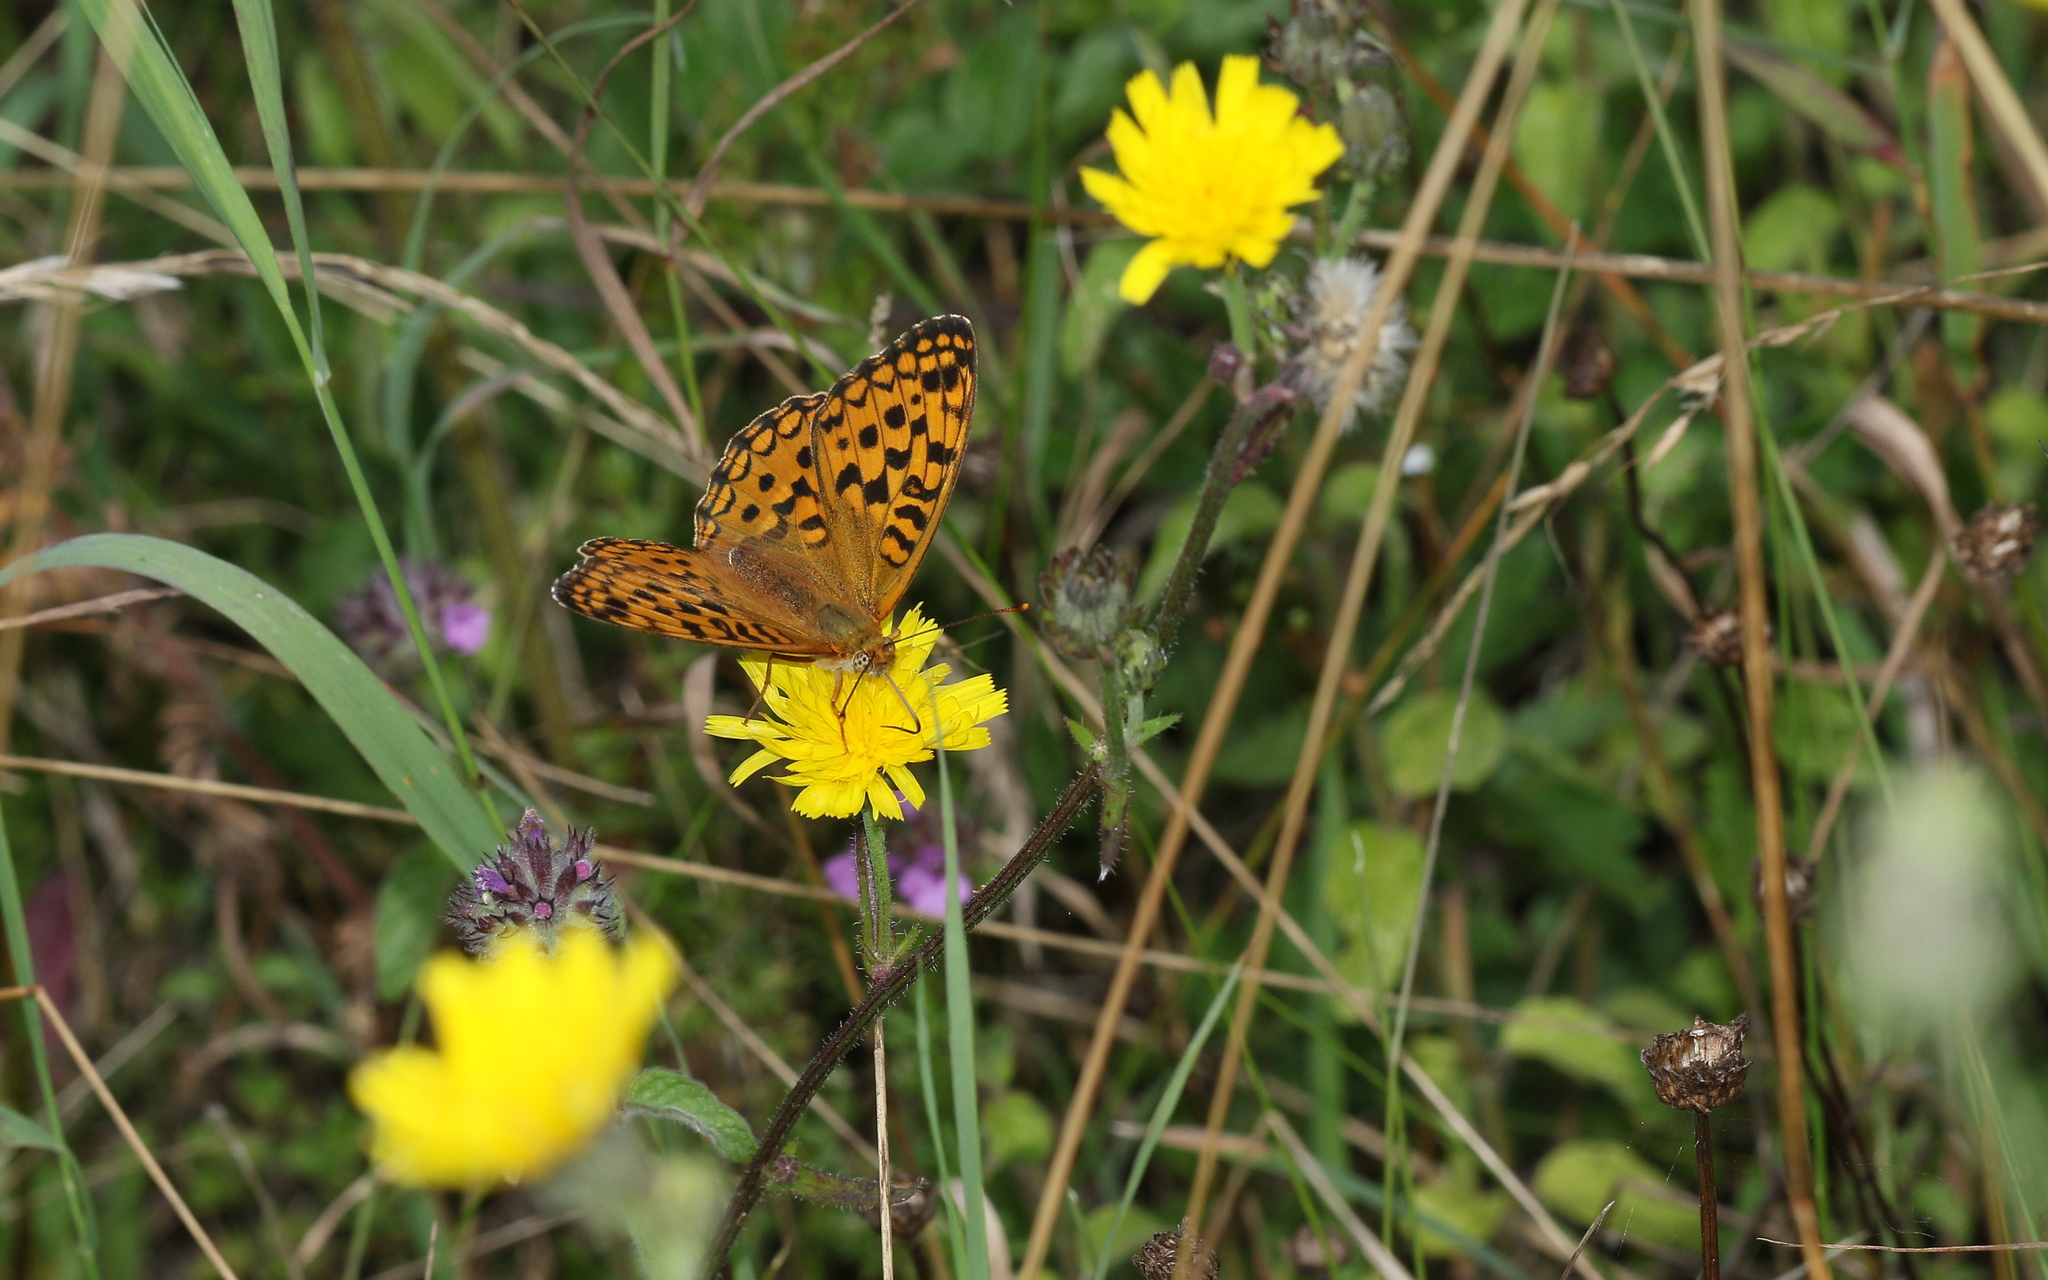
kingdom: Animalia
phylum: Arthropoda
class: Insecta
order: Lepidoptera
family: Nymphalidae
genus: Fabriciana
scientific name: Fabriciana adippe
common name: High brown fritillary
